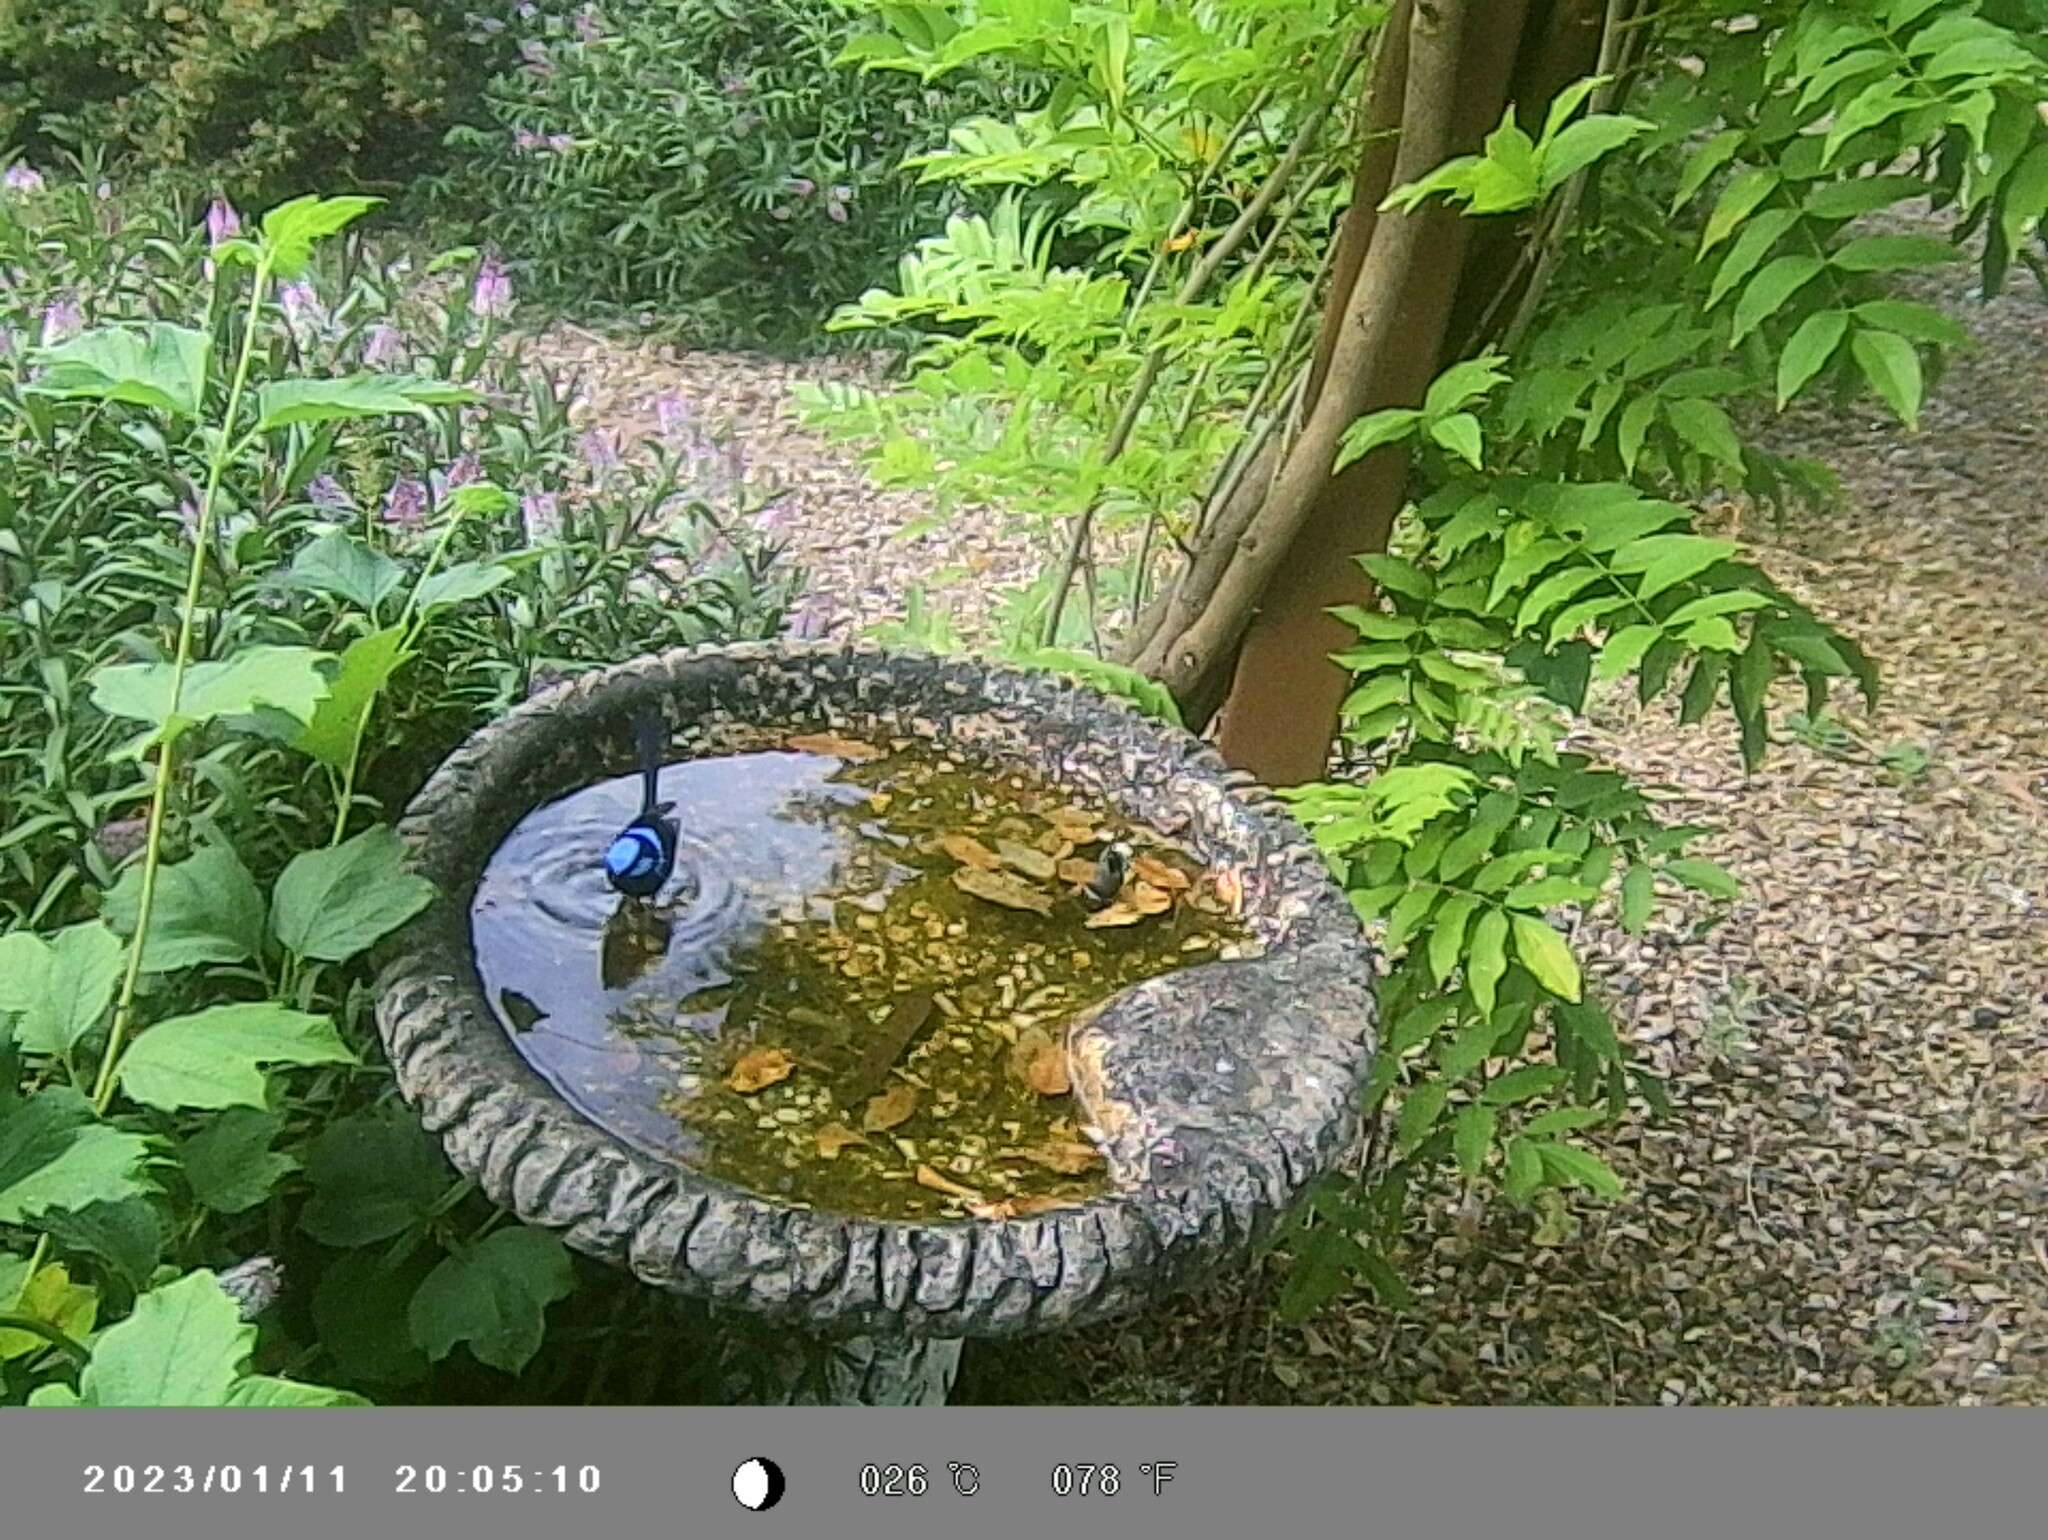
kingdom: Animalia
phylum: Chordata
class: Aves
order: Passeriformes
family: Maluridae
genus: Malurus
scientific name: Malurus cyaneus
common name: Superb fairywren
